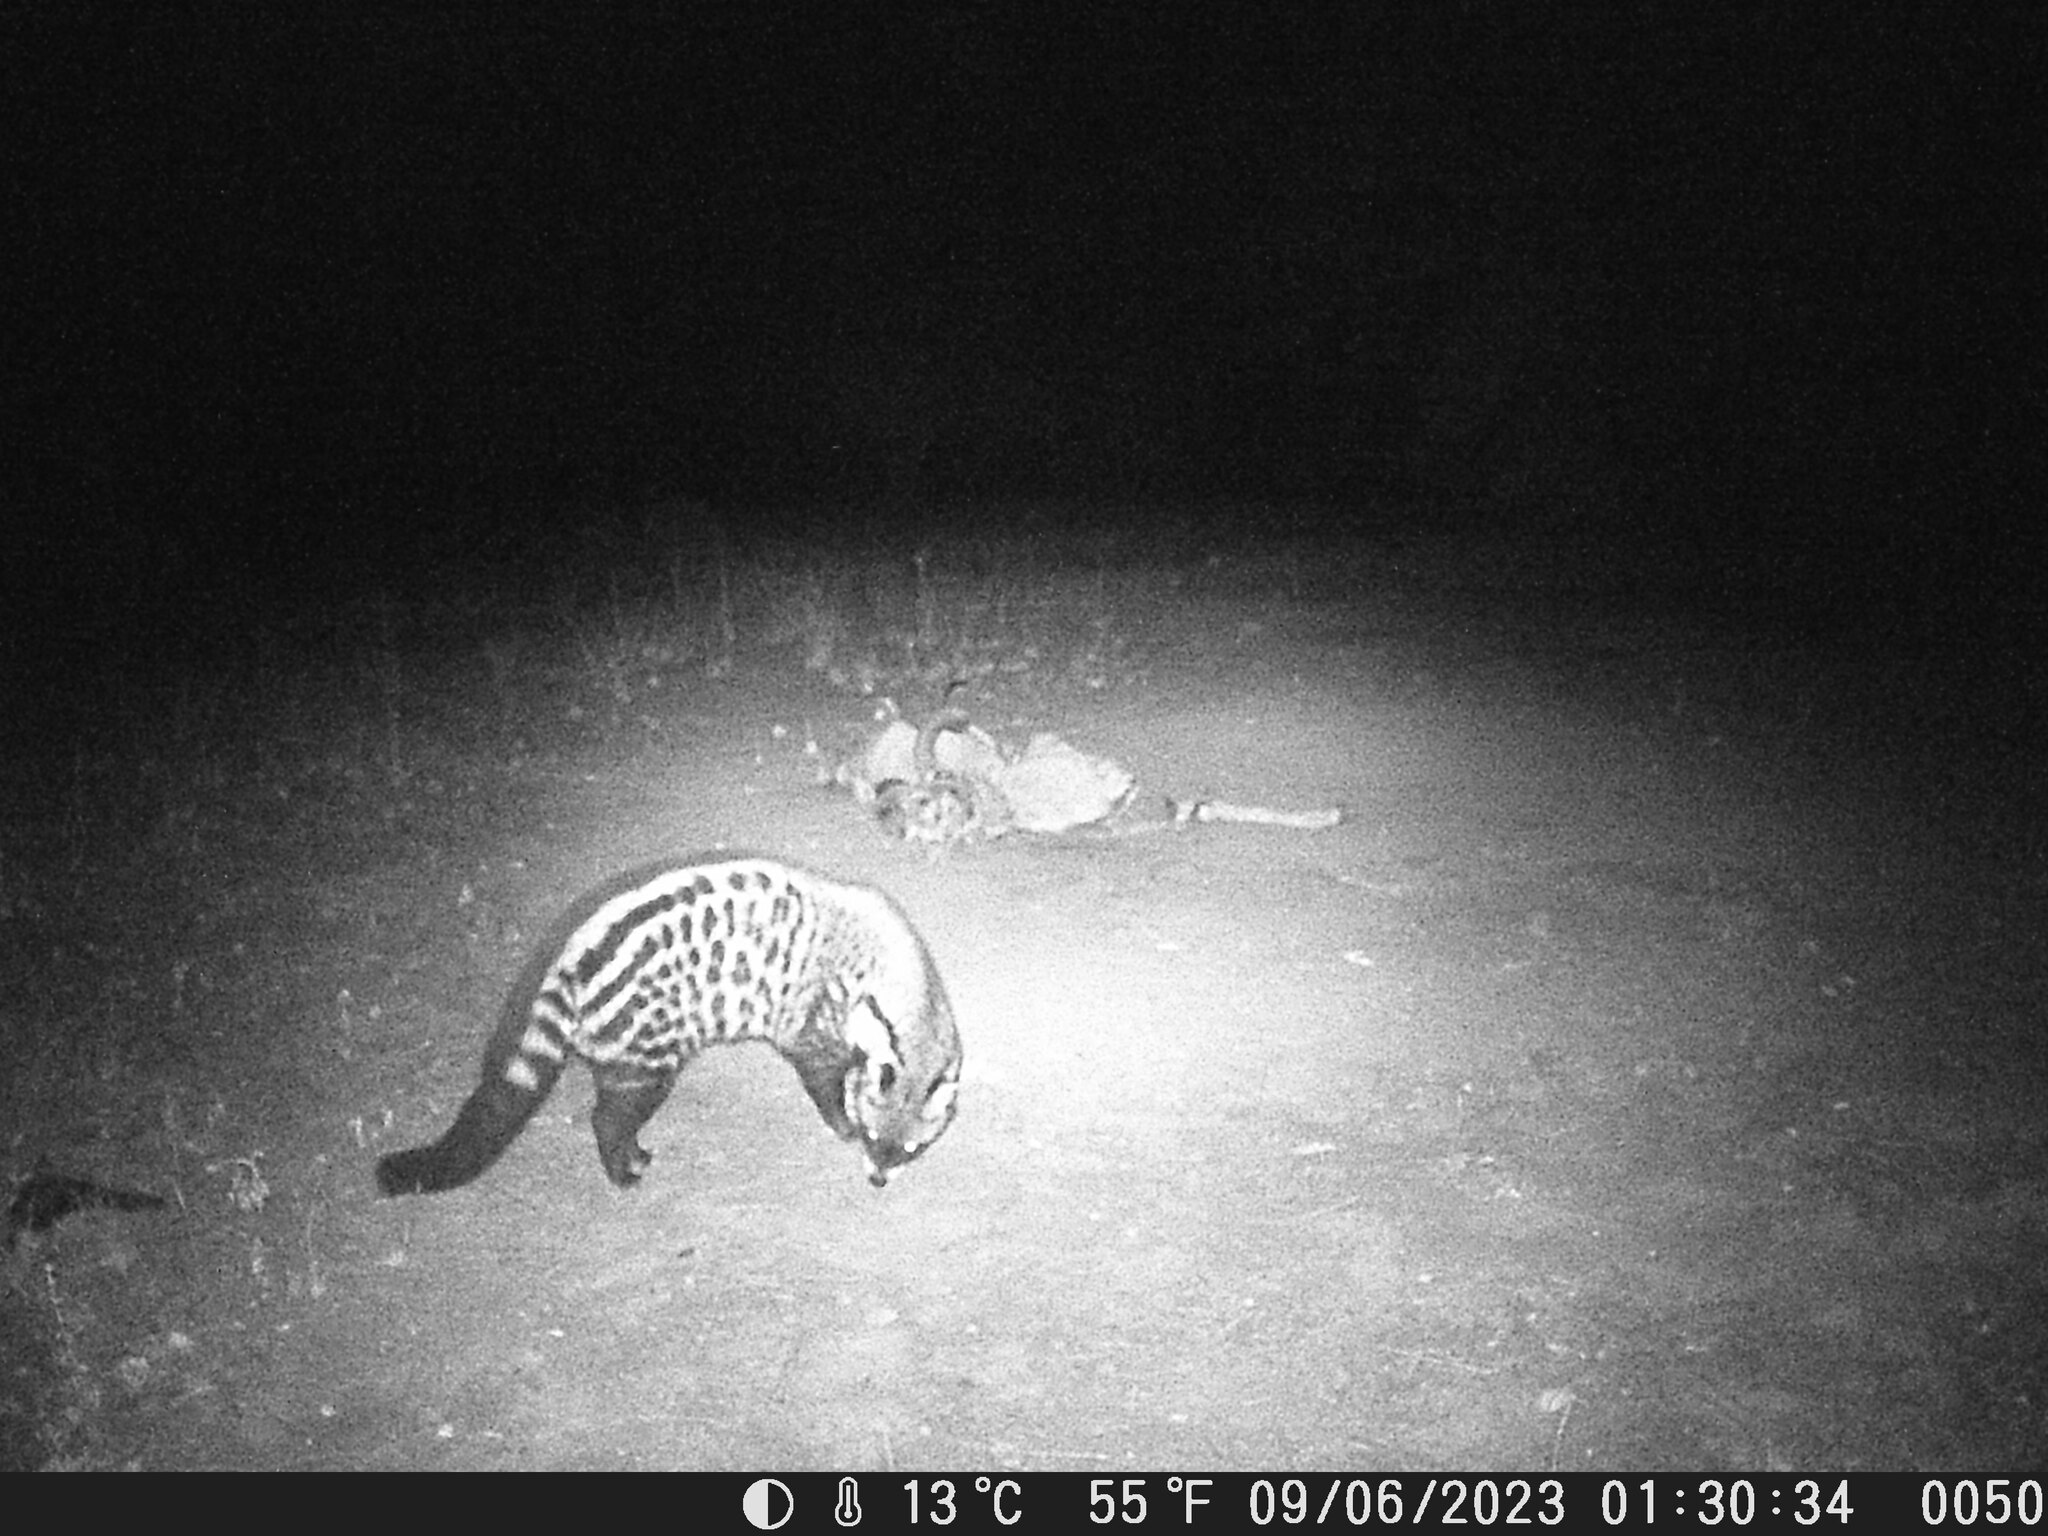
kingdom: Animalia
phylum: Chordata
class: Mammalia
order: Carnivora
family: Viverridae
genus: Civettictis
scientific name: Civettictis civetta
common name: African civet
